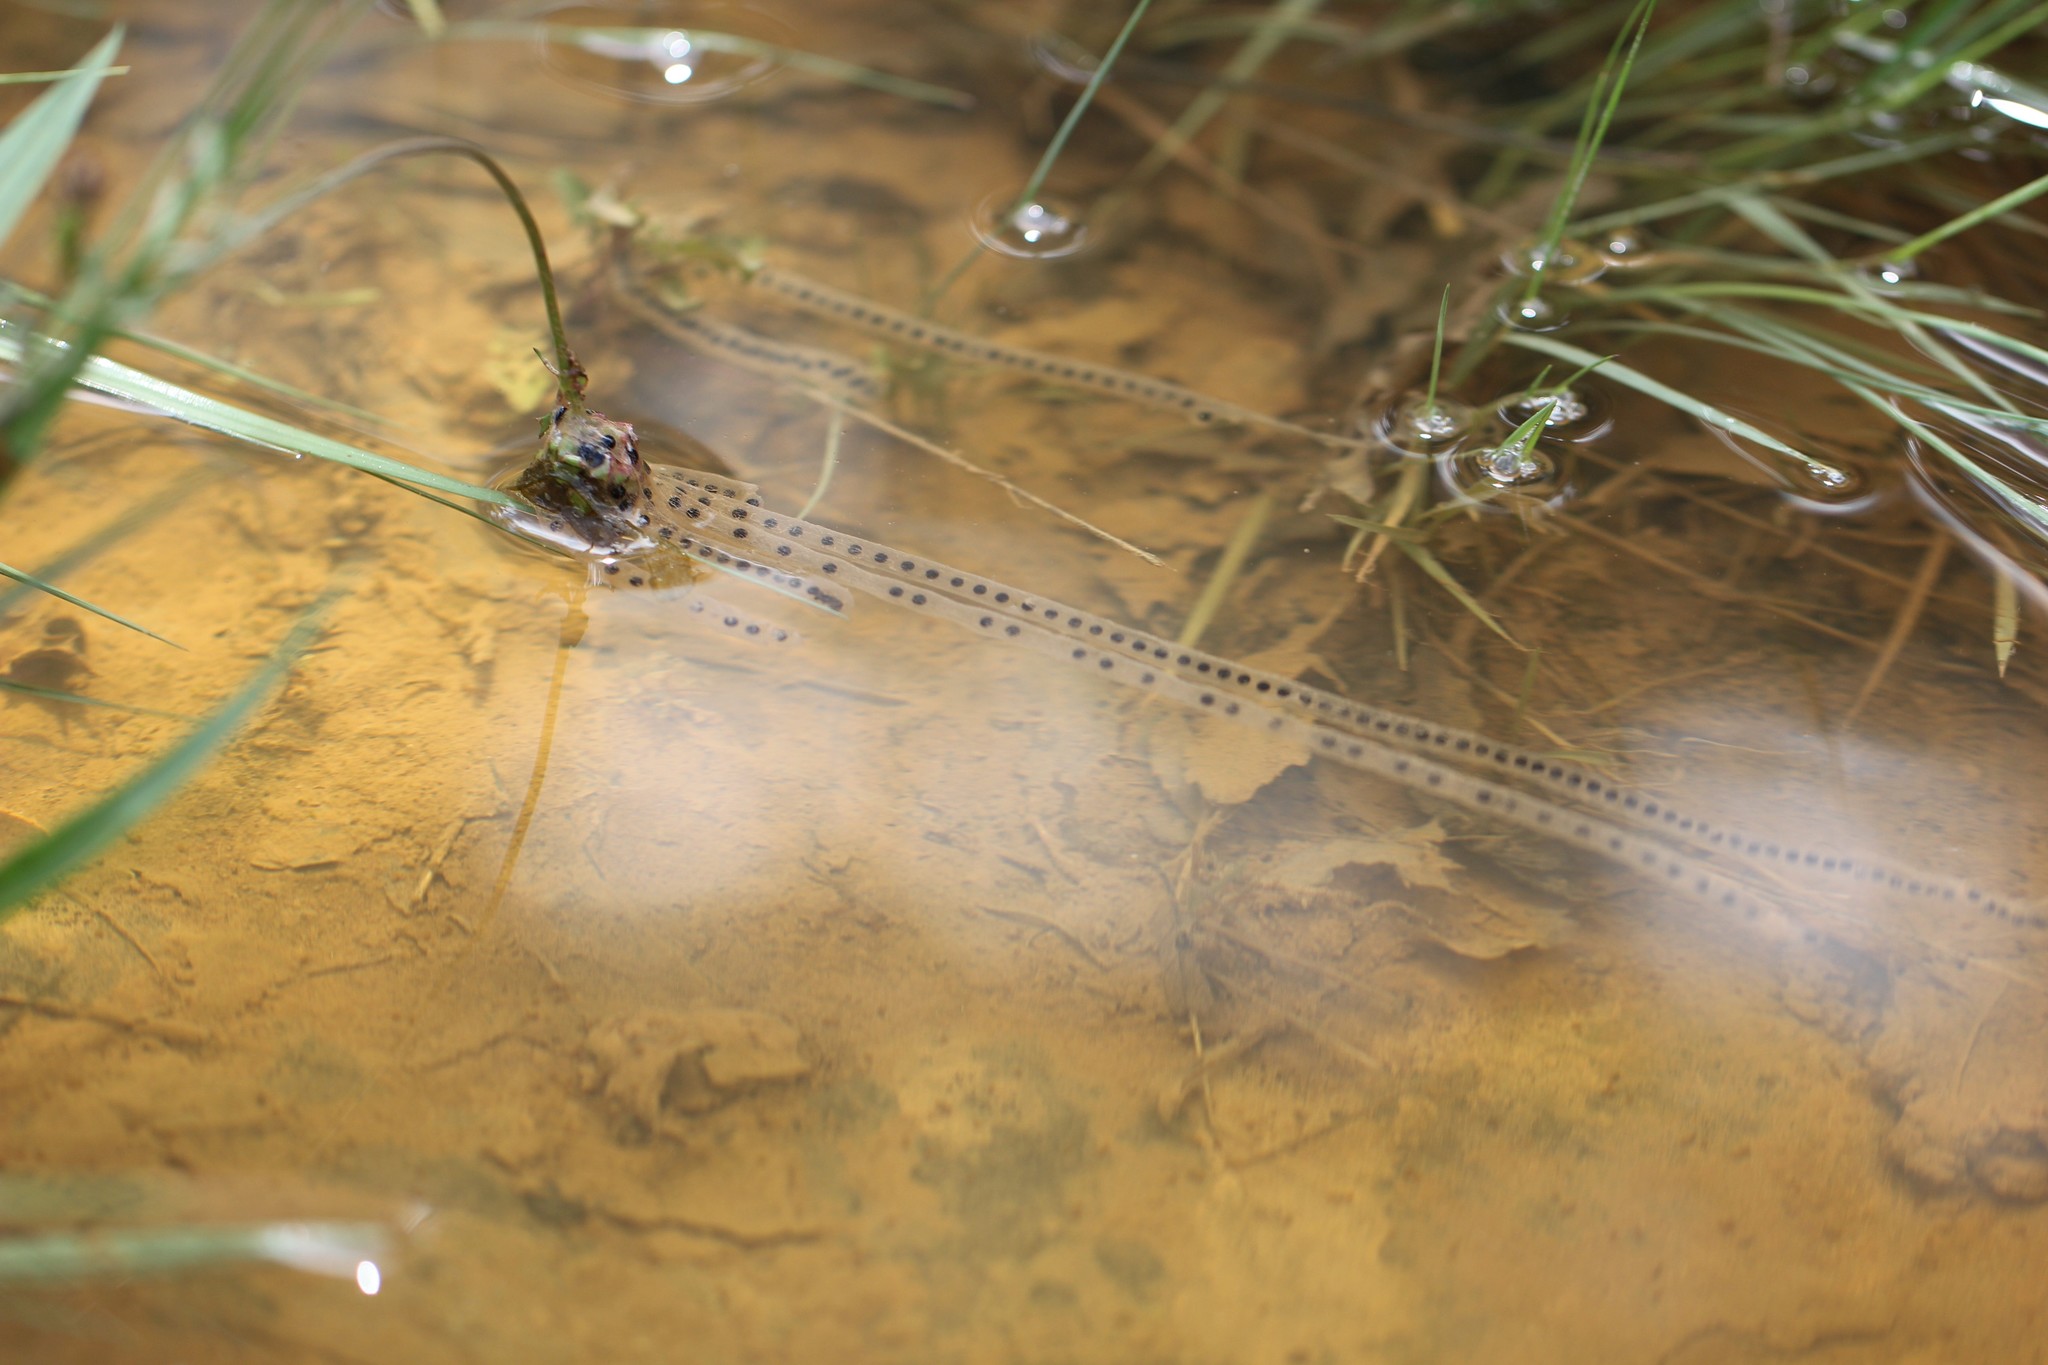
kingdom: Animalia
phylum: Chordata
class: Amphibia
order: Anura
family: Bufonidae
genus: Epidalea
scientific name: Epidalea calamita
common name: Natterjack toad
